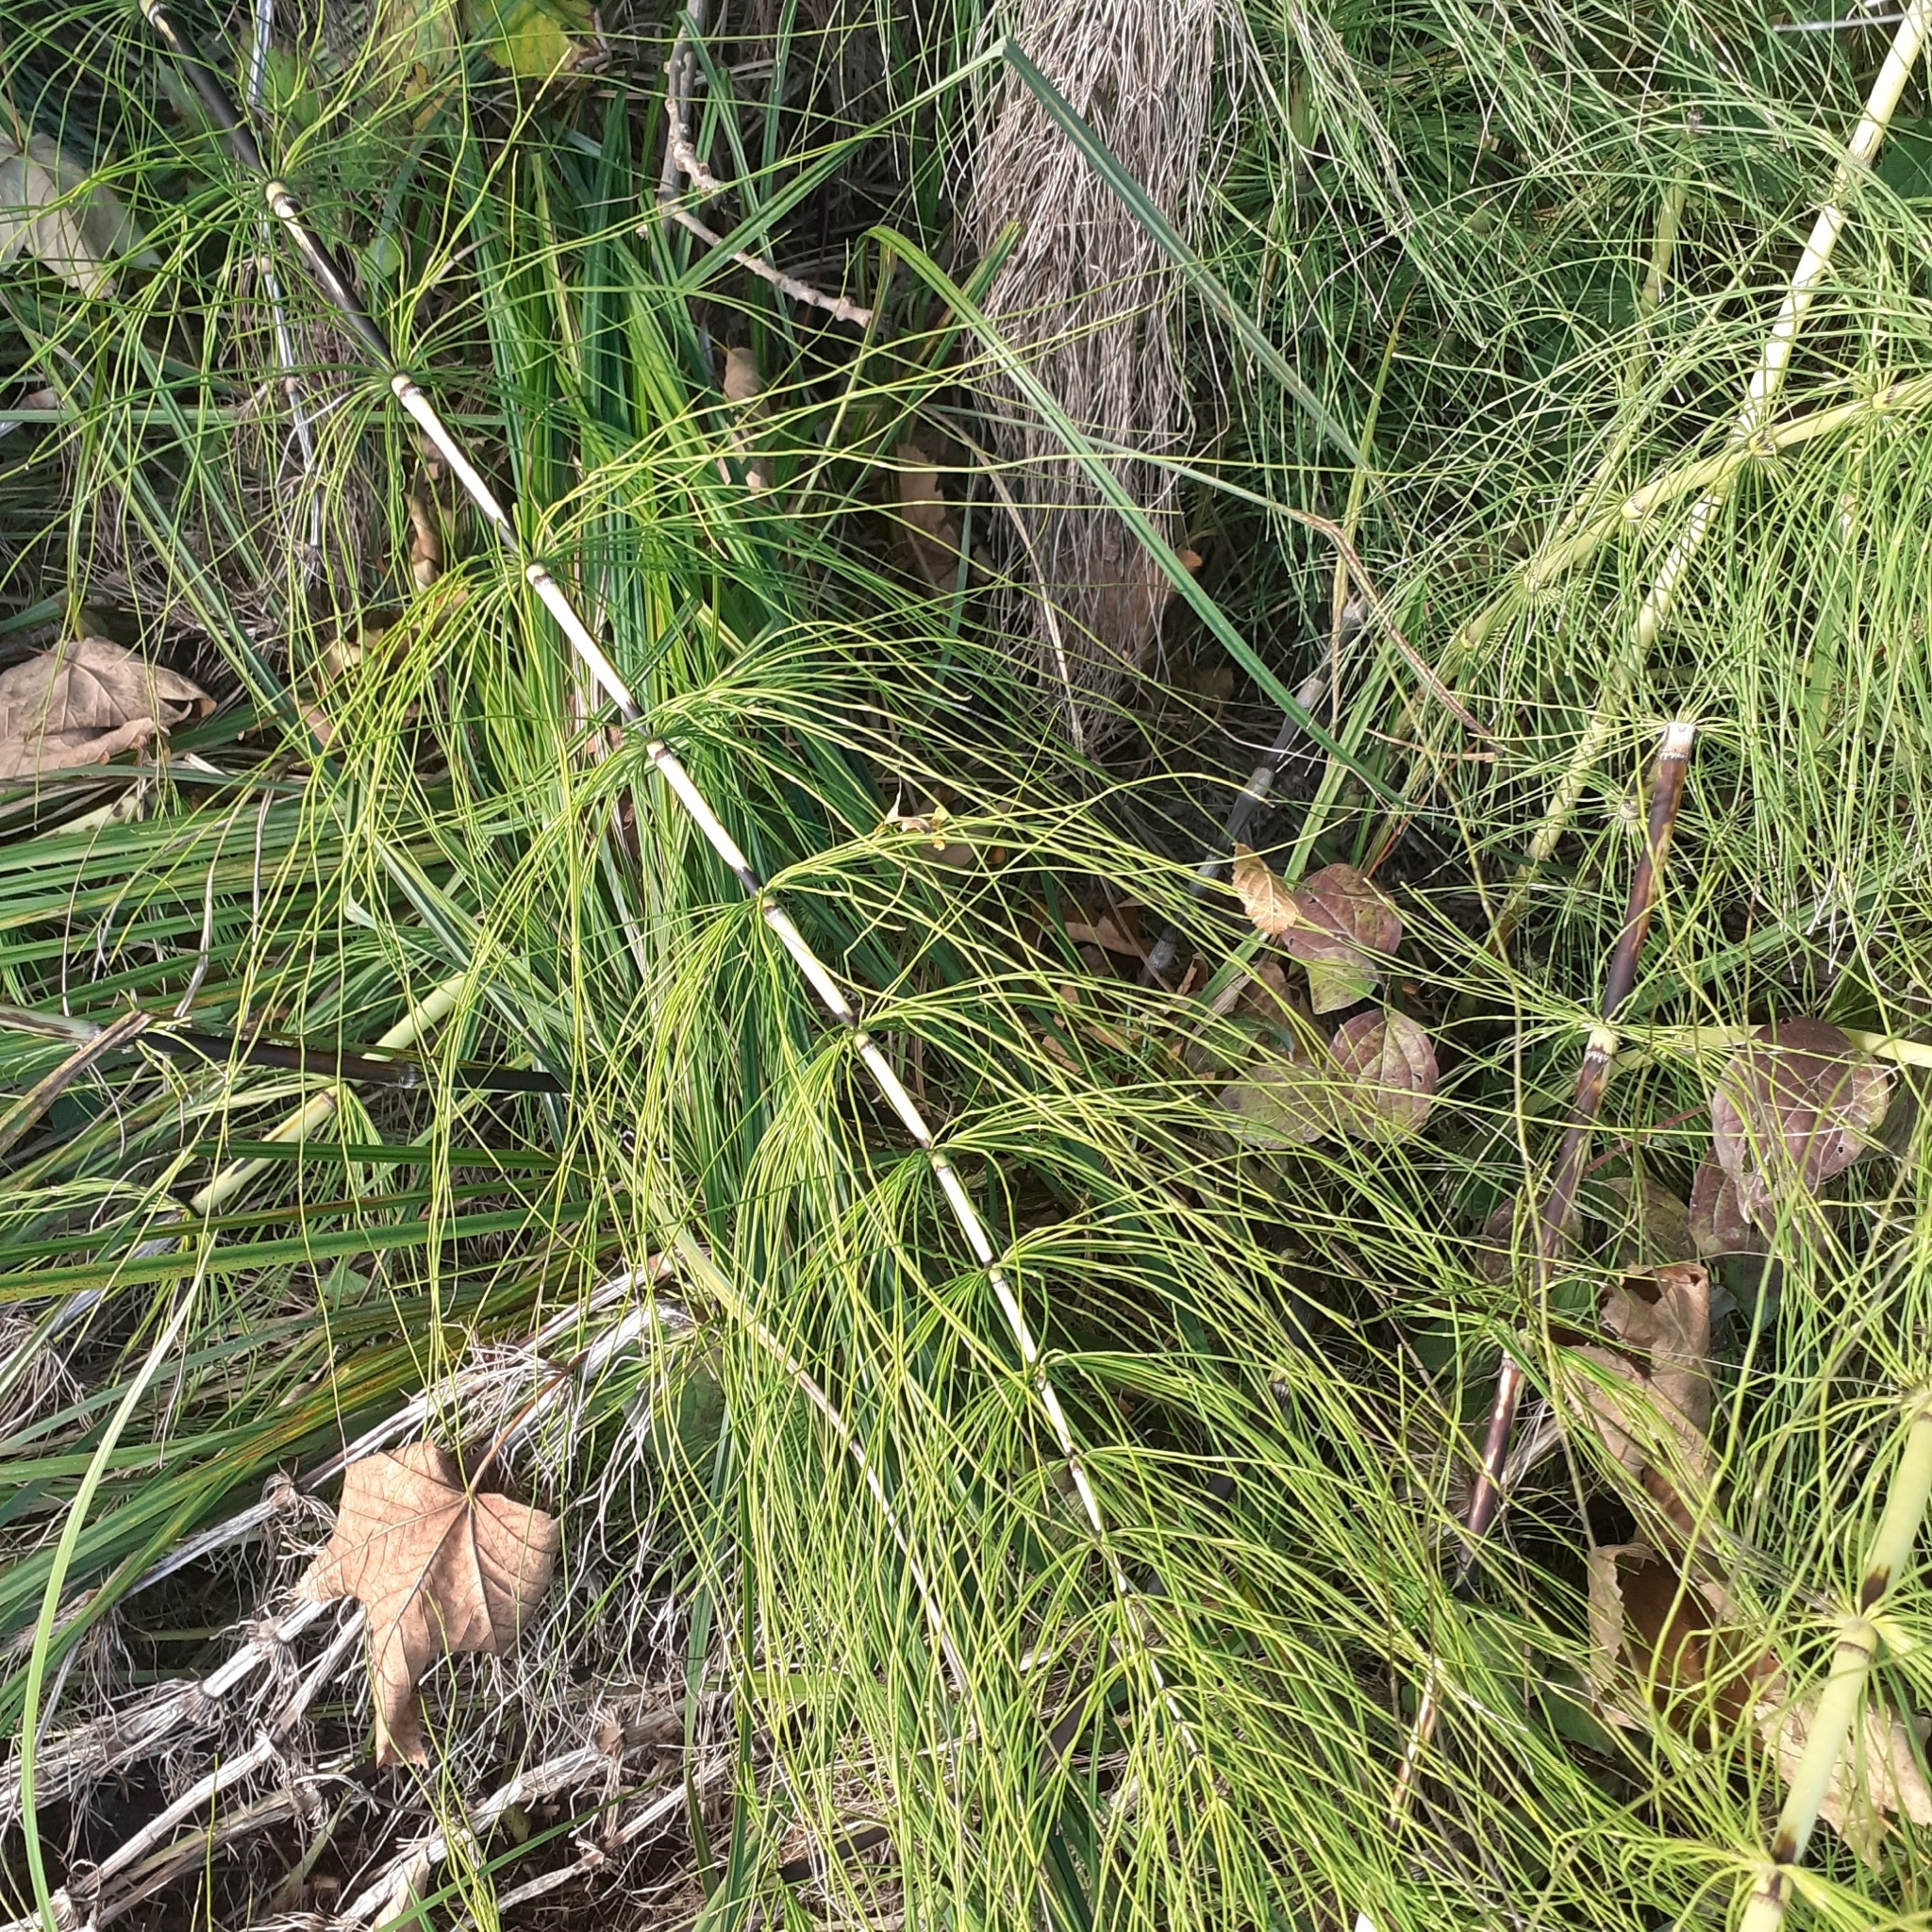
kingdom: Plantae
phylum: Tracheophyta
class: Polypodiopsida
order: Equisetales
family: Equisetaceae
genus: Equisetum
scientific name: Equisetum telmateia
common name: Great horsetail
